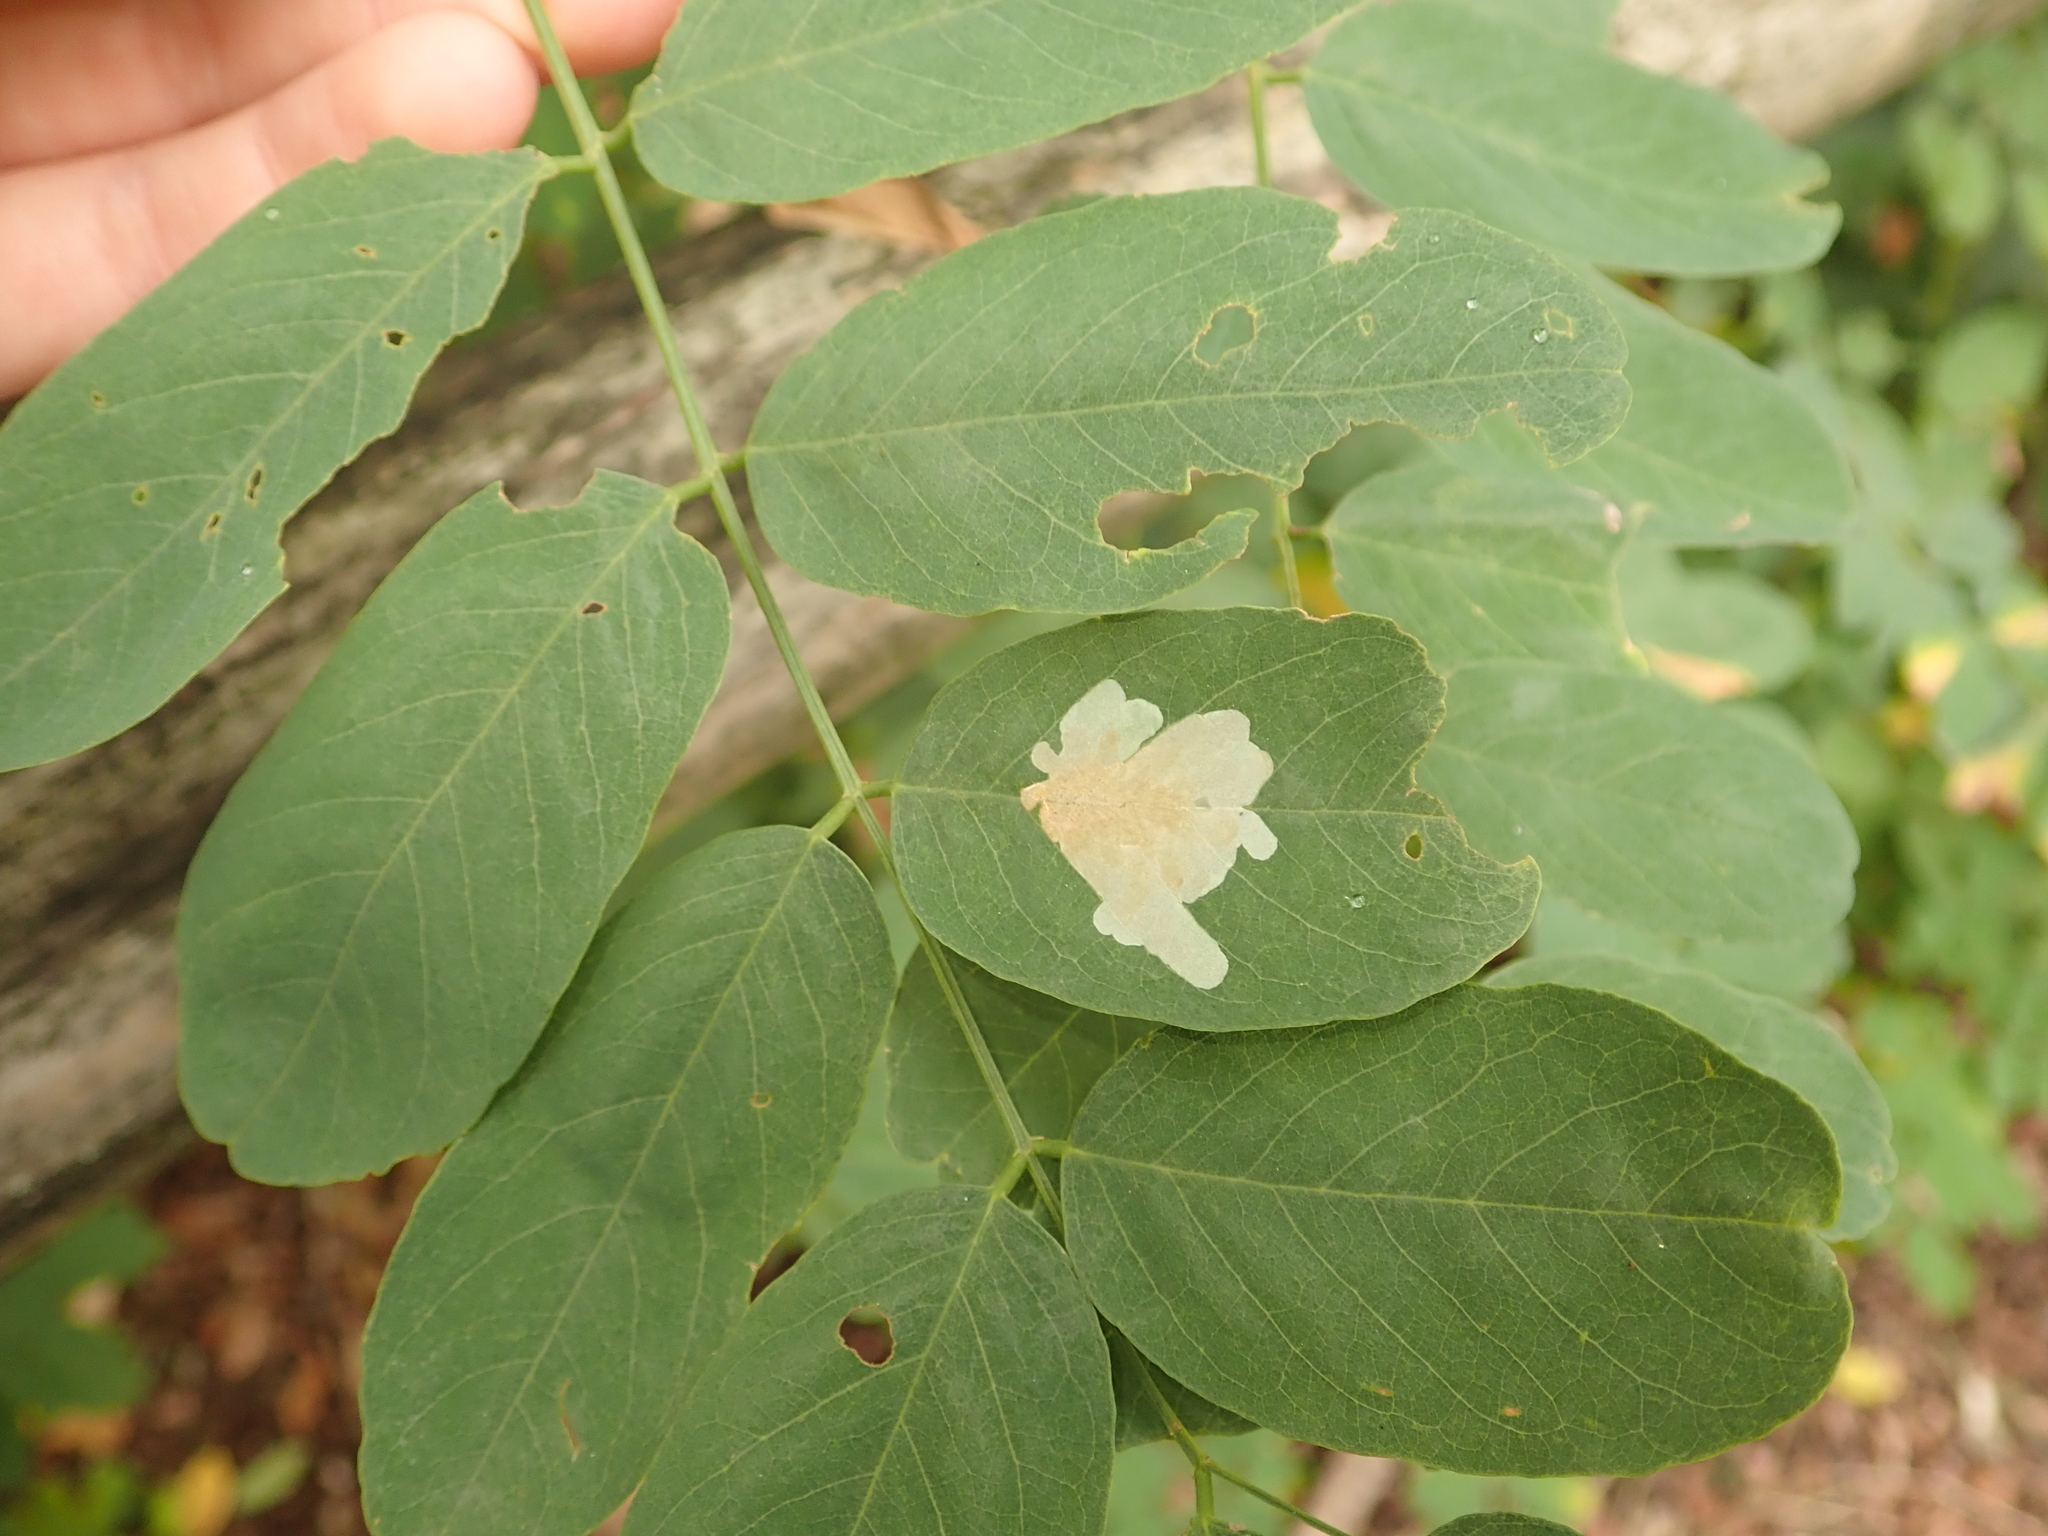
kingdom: Plantae
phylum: Tracheophyta
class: Magnoliopsida
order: Fabales
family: Fabaceae
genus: Robinia
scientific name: Robinia pseudoacacia
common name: Black locust
